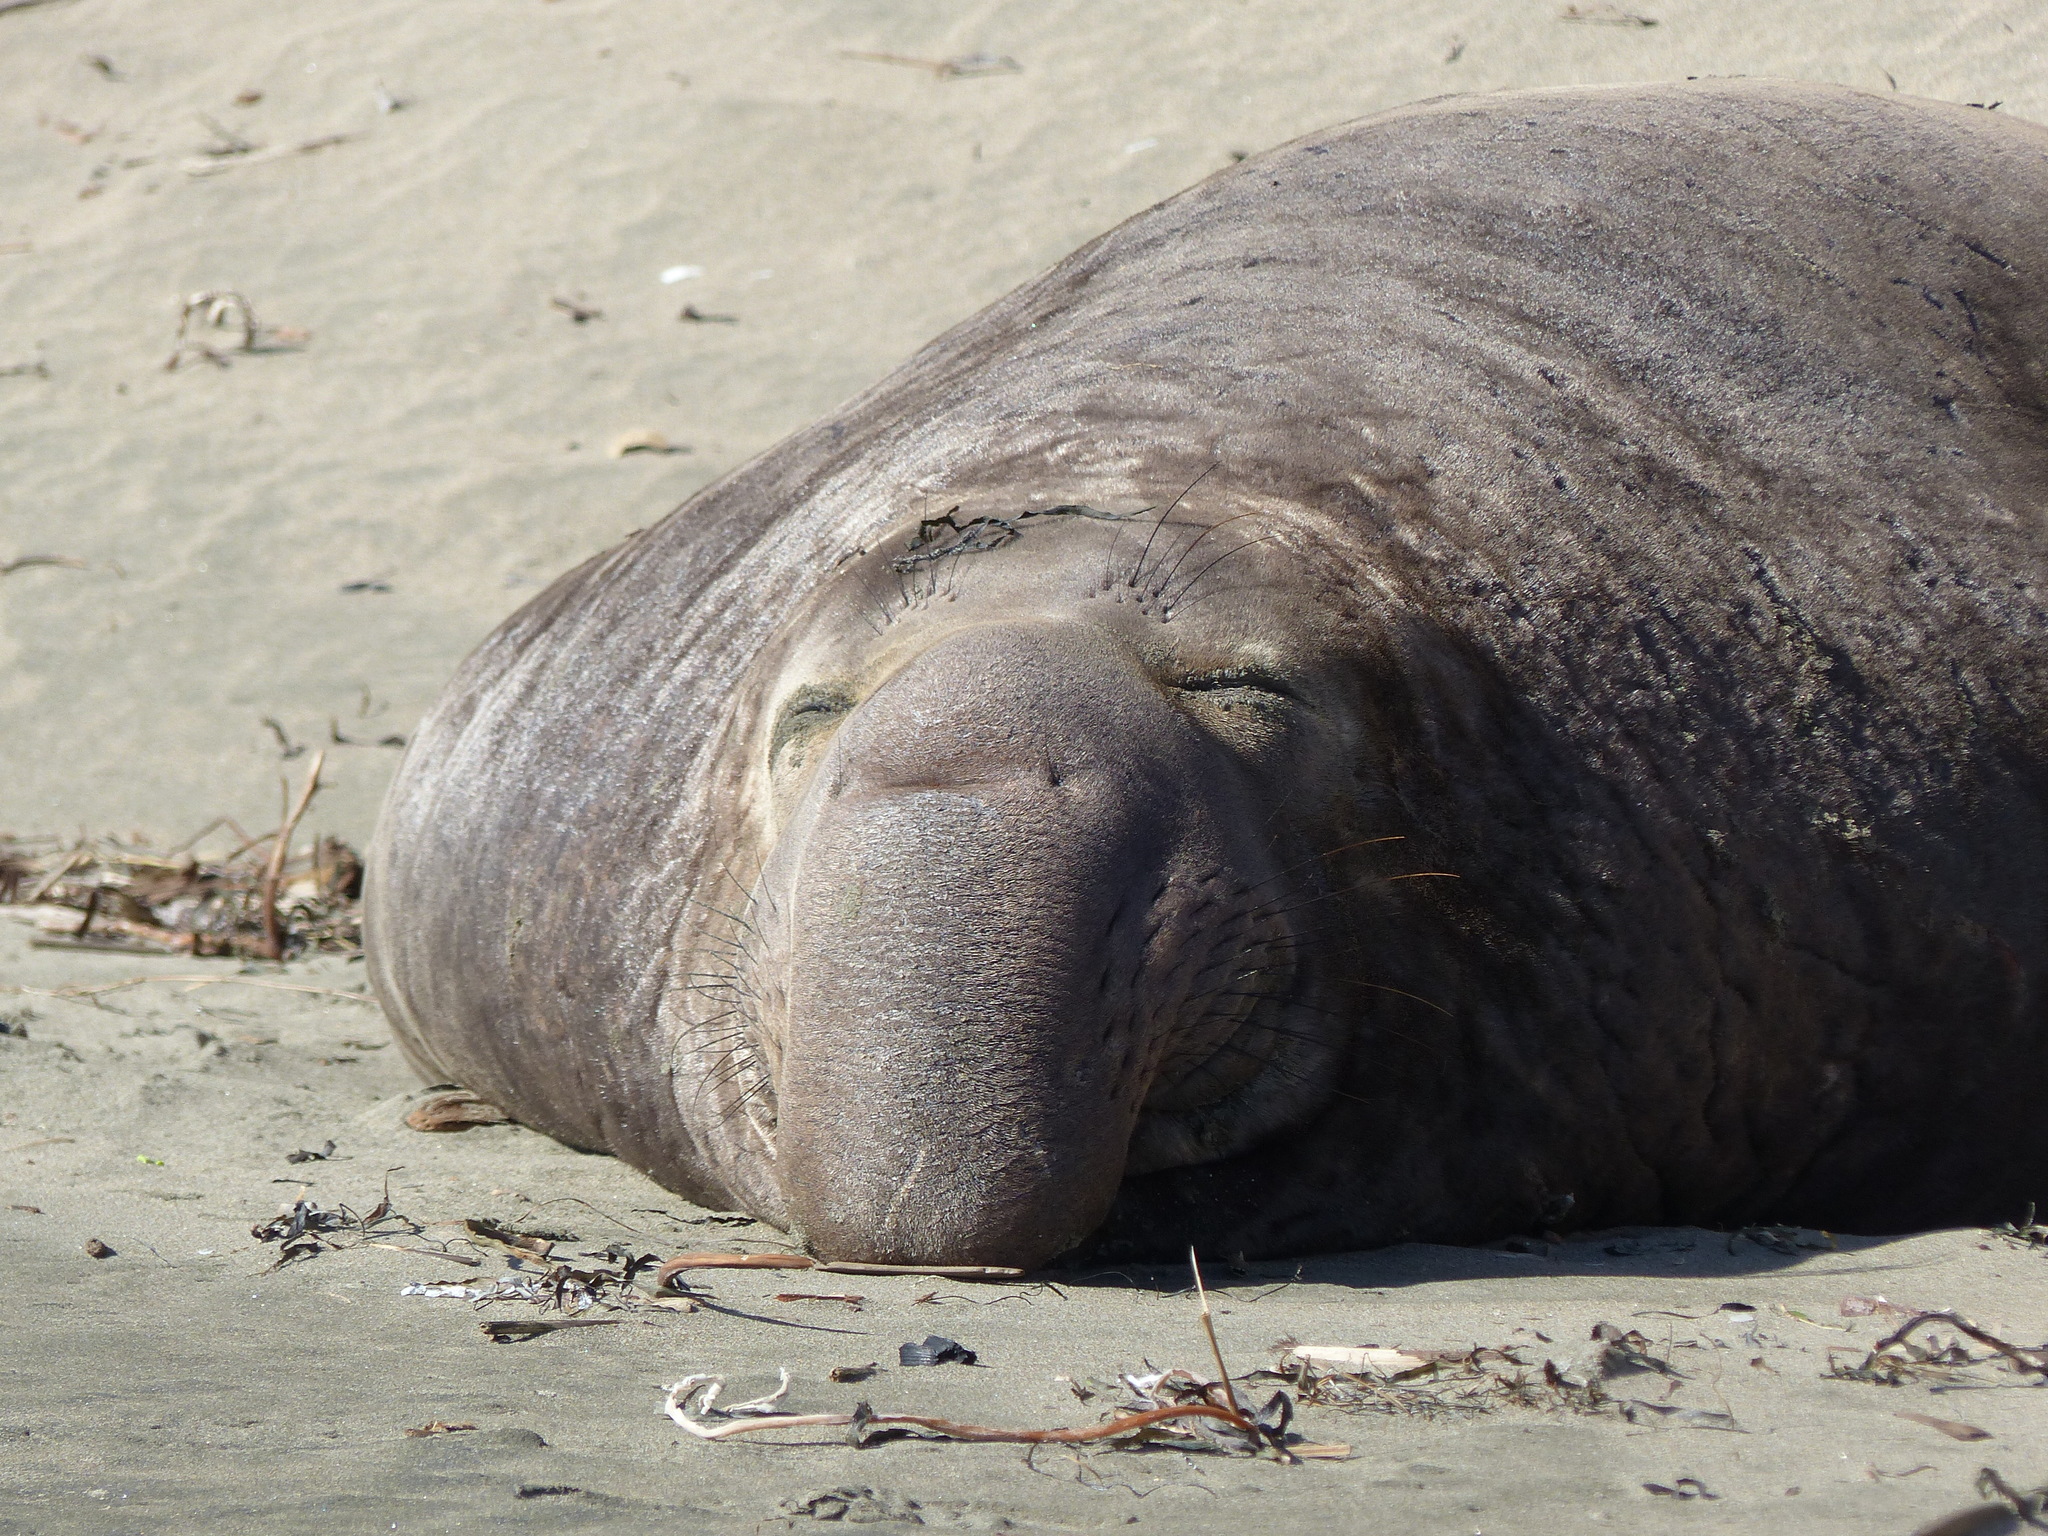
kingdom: Animalia
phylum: Chordata
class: Mammalia
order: Carnivora
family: Phocidae
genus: Mirounga
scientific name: Mirounga angustirostris
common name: Northern elephant seal
